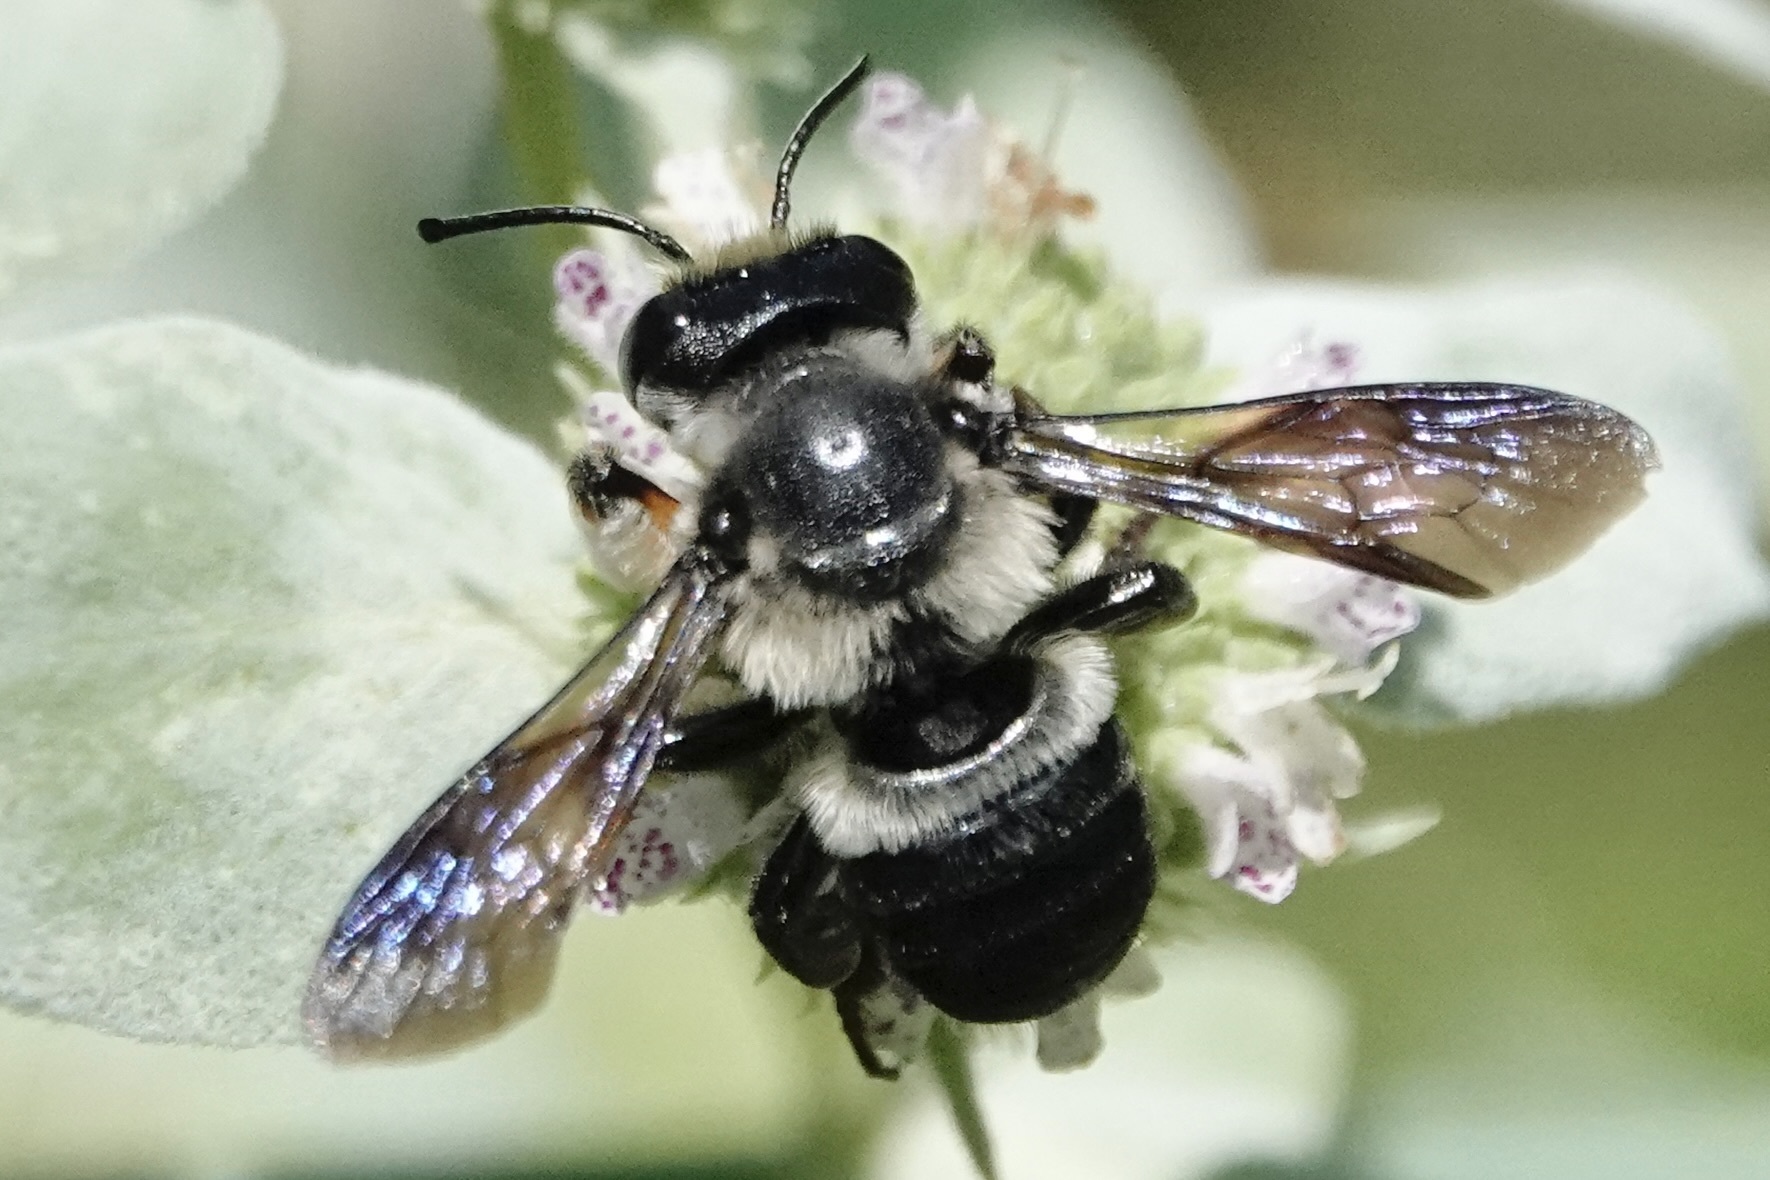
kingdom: Animalia
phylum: Arthropoda
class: Insecta
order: Hymenoptera
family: Megachilidae
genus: Megachile
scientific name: Megachile xylocopoides
